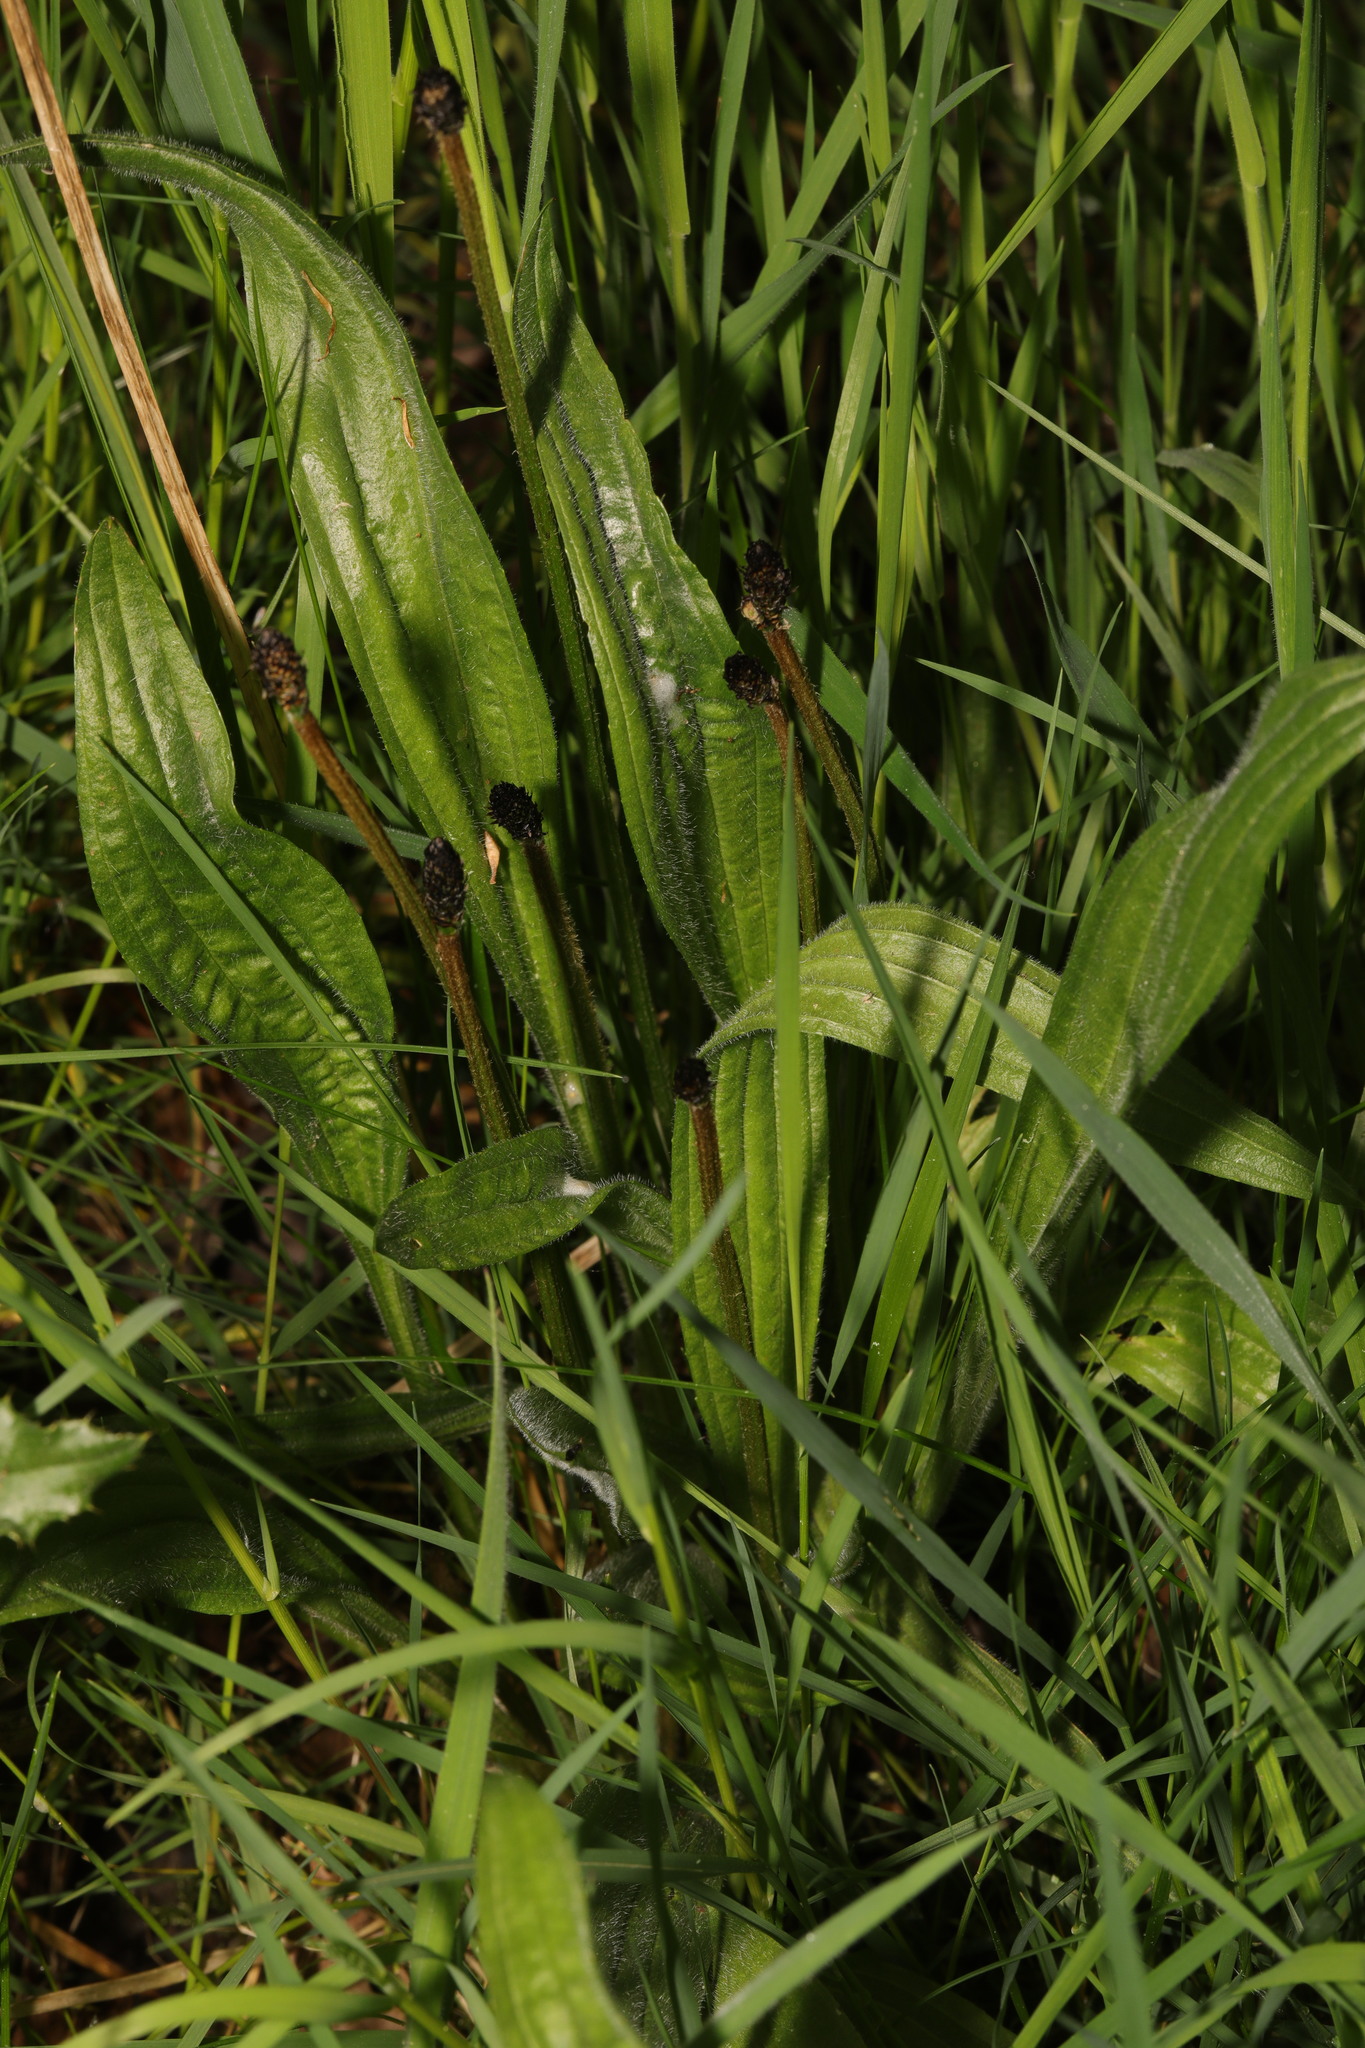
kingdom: Plantae
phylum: Tracheophyta
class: Magnoliopsida
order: Lamiales
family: Plantaginaceae
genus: Plantago
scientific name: Plantago lanceolata
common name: Ribwort plantain
